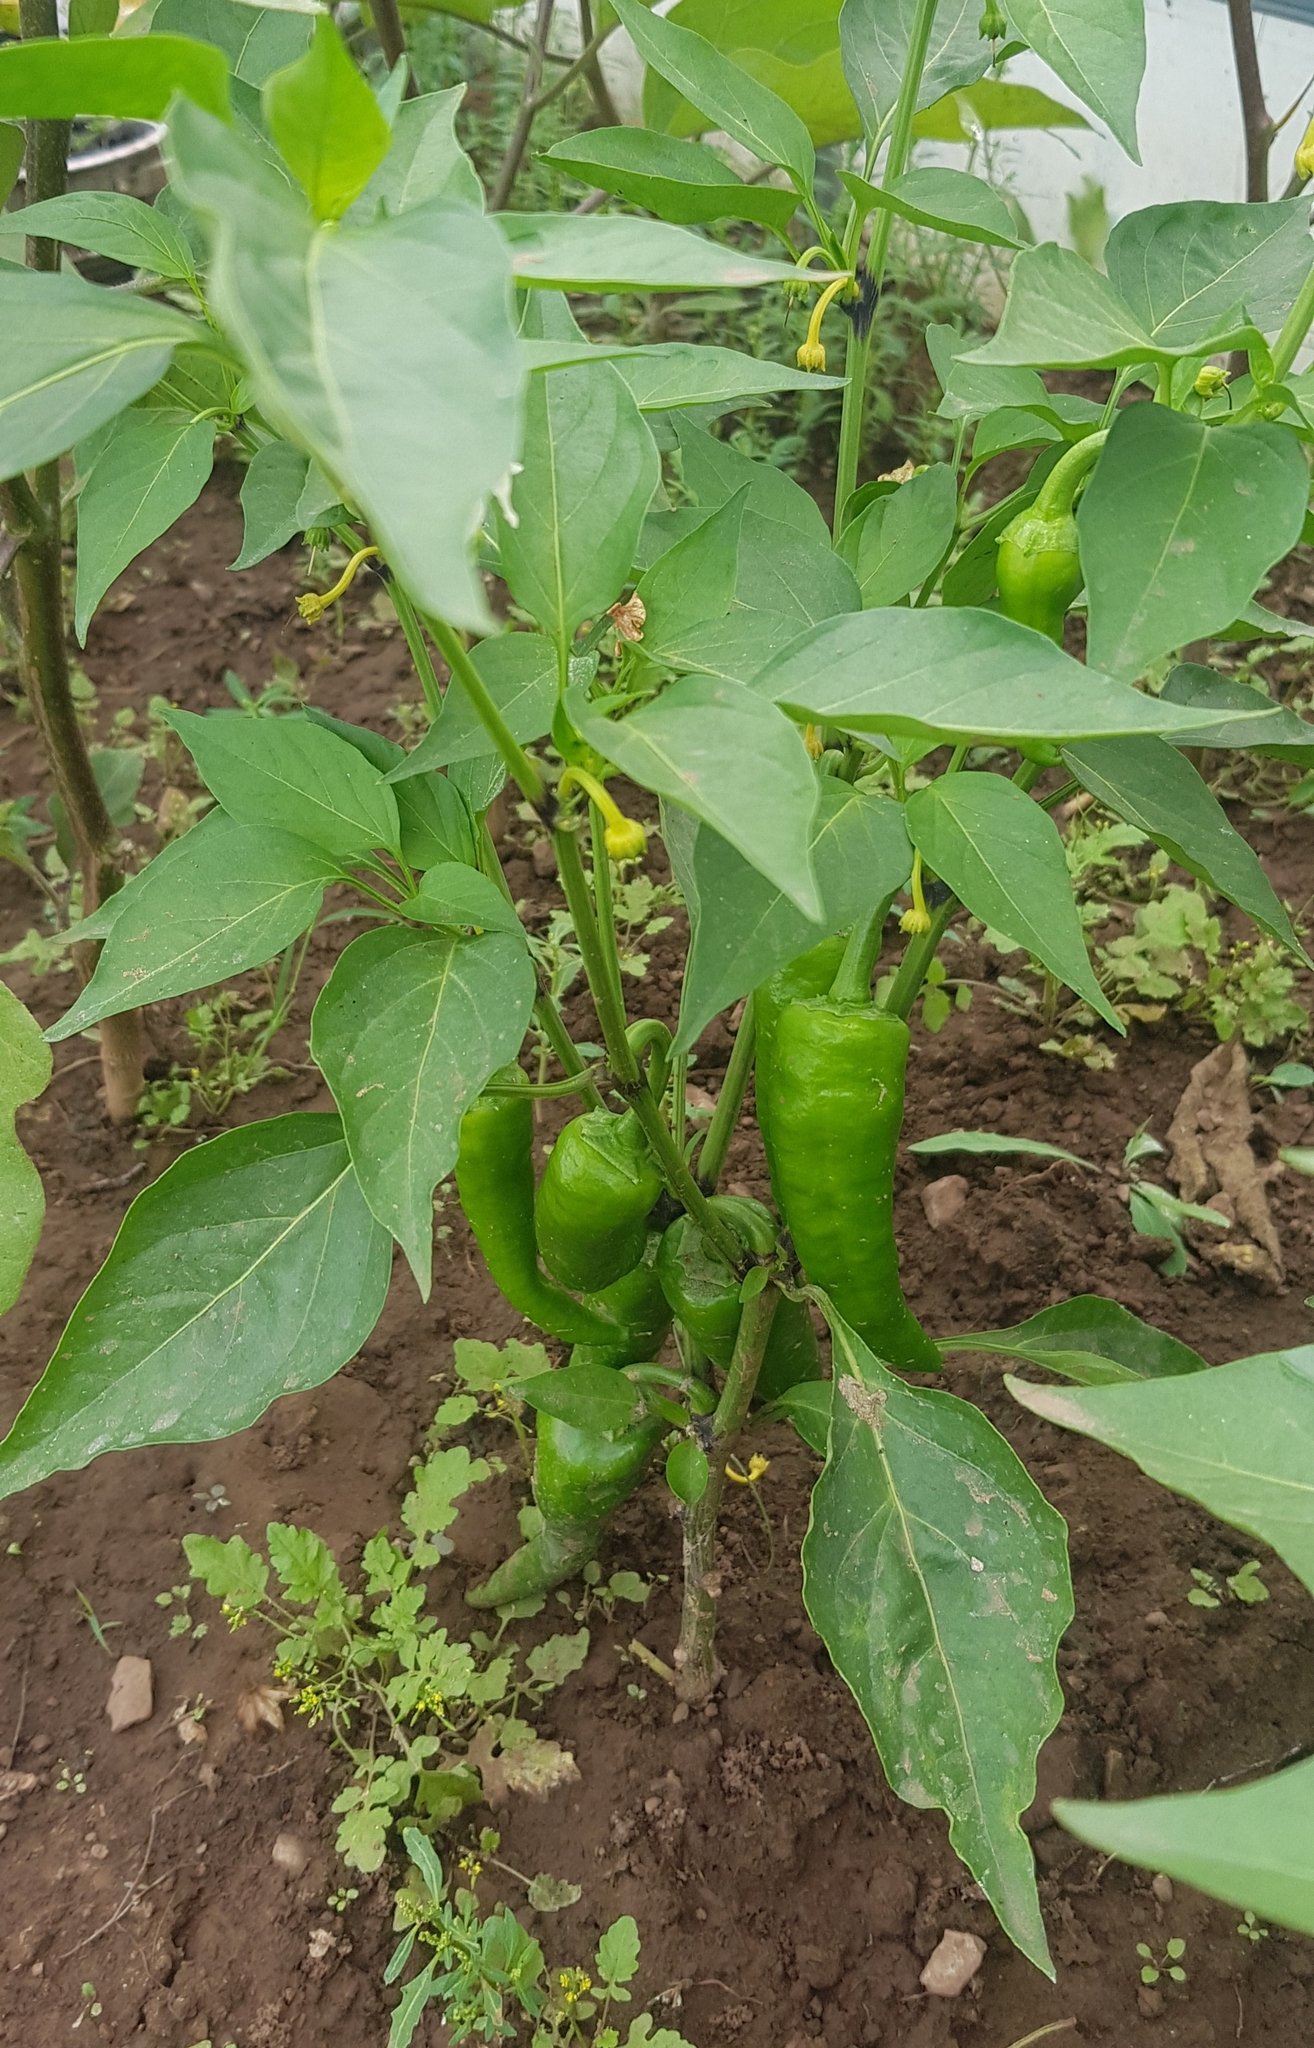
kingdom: Plantae
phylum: Tracheophyta
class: Magnoliopsida
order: Solanales
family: Solanaceae
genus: Capsicum
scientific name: Capsicum annuum
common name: Sweet pepper
